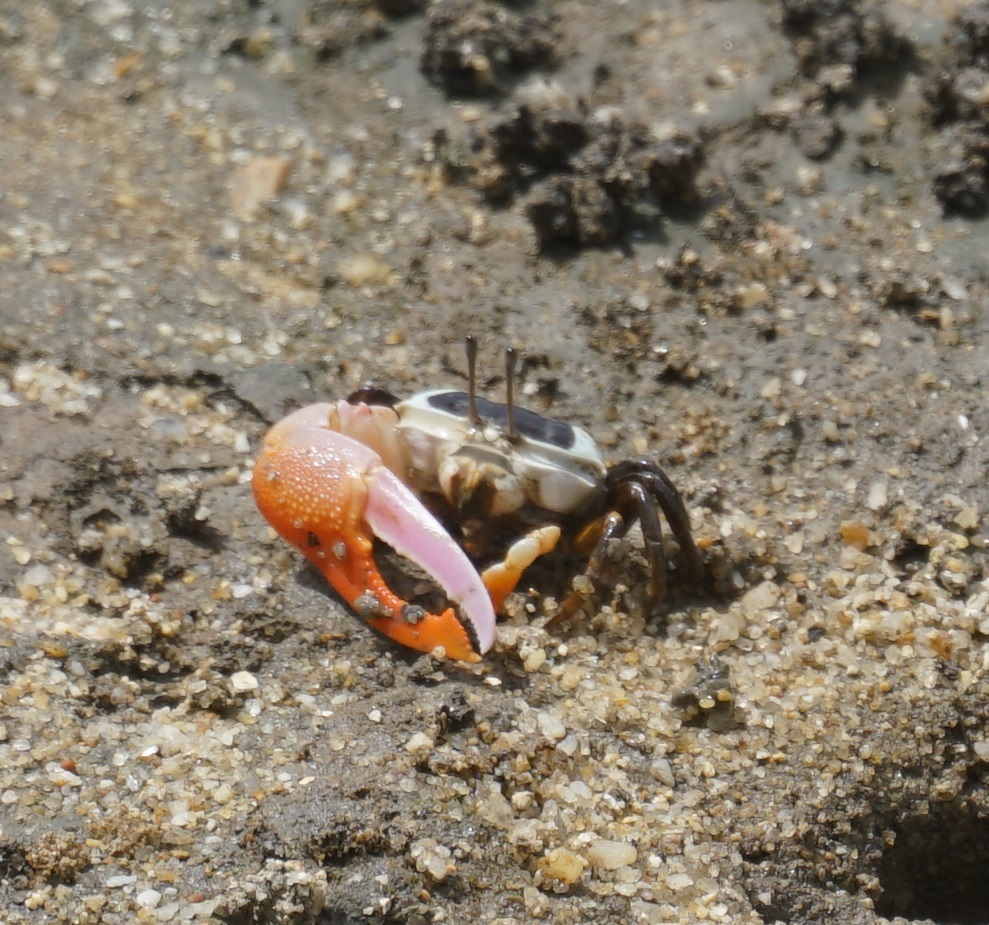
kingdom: Animalia
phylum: Arthropoda
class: Malacostraca
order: Decapoda
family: Ocypodidae
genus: Gelasimus
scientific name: Gelasimus vomeris
